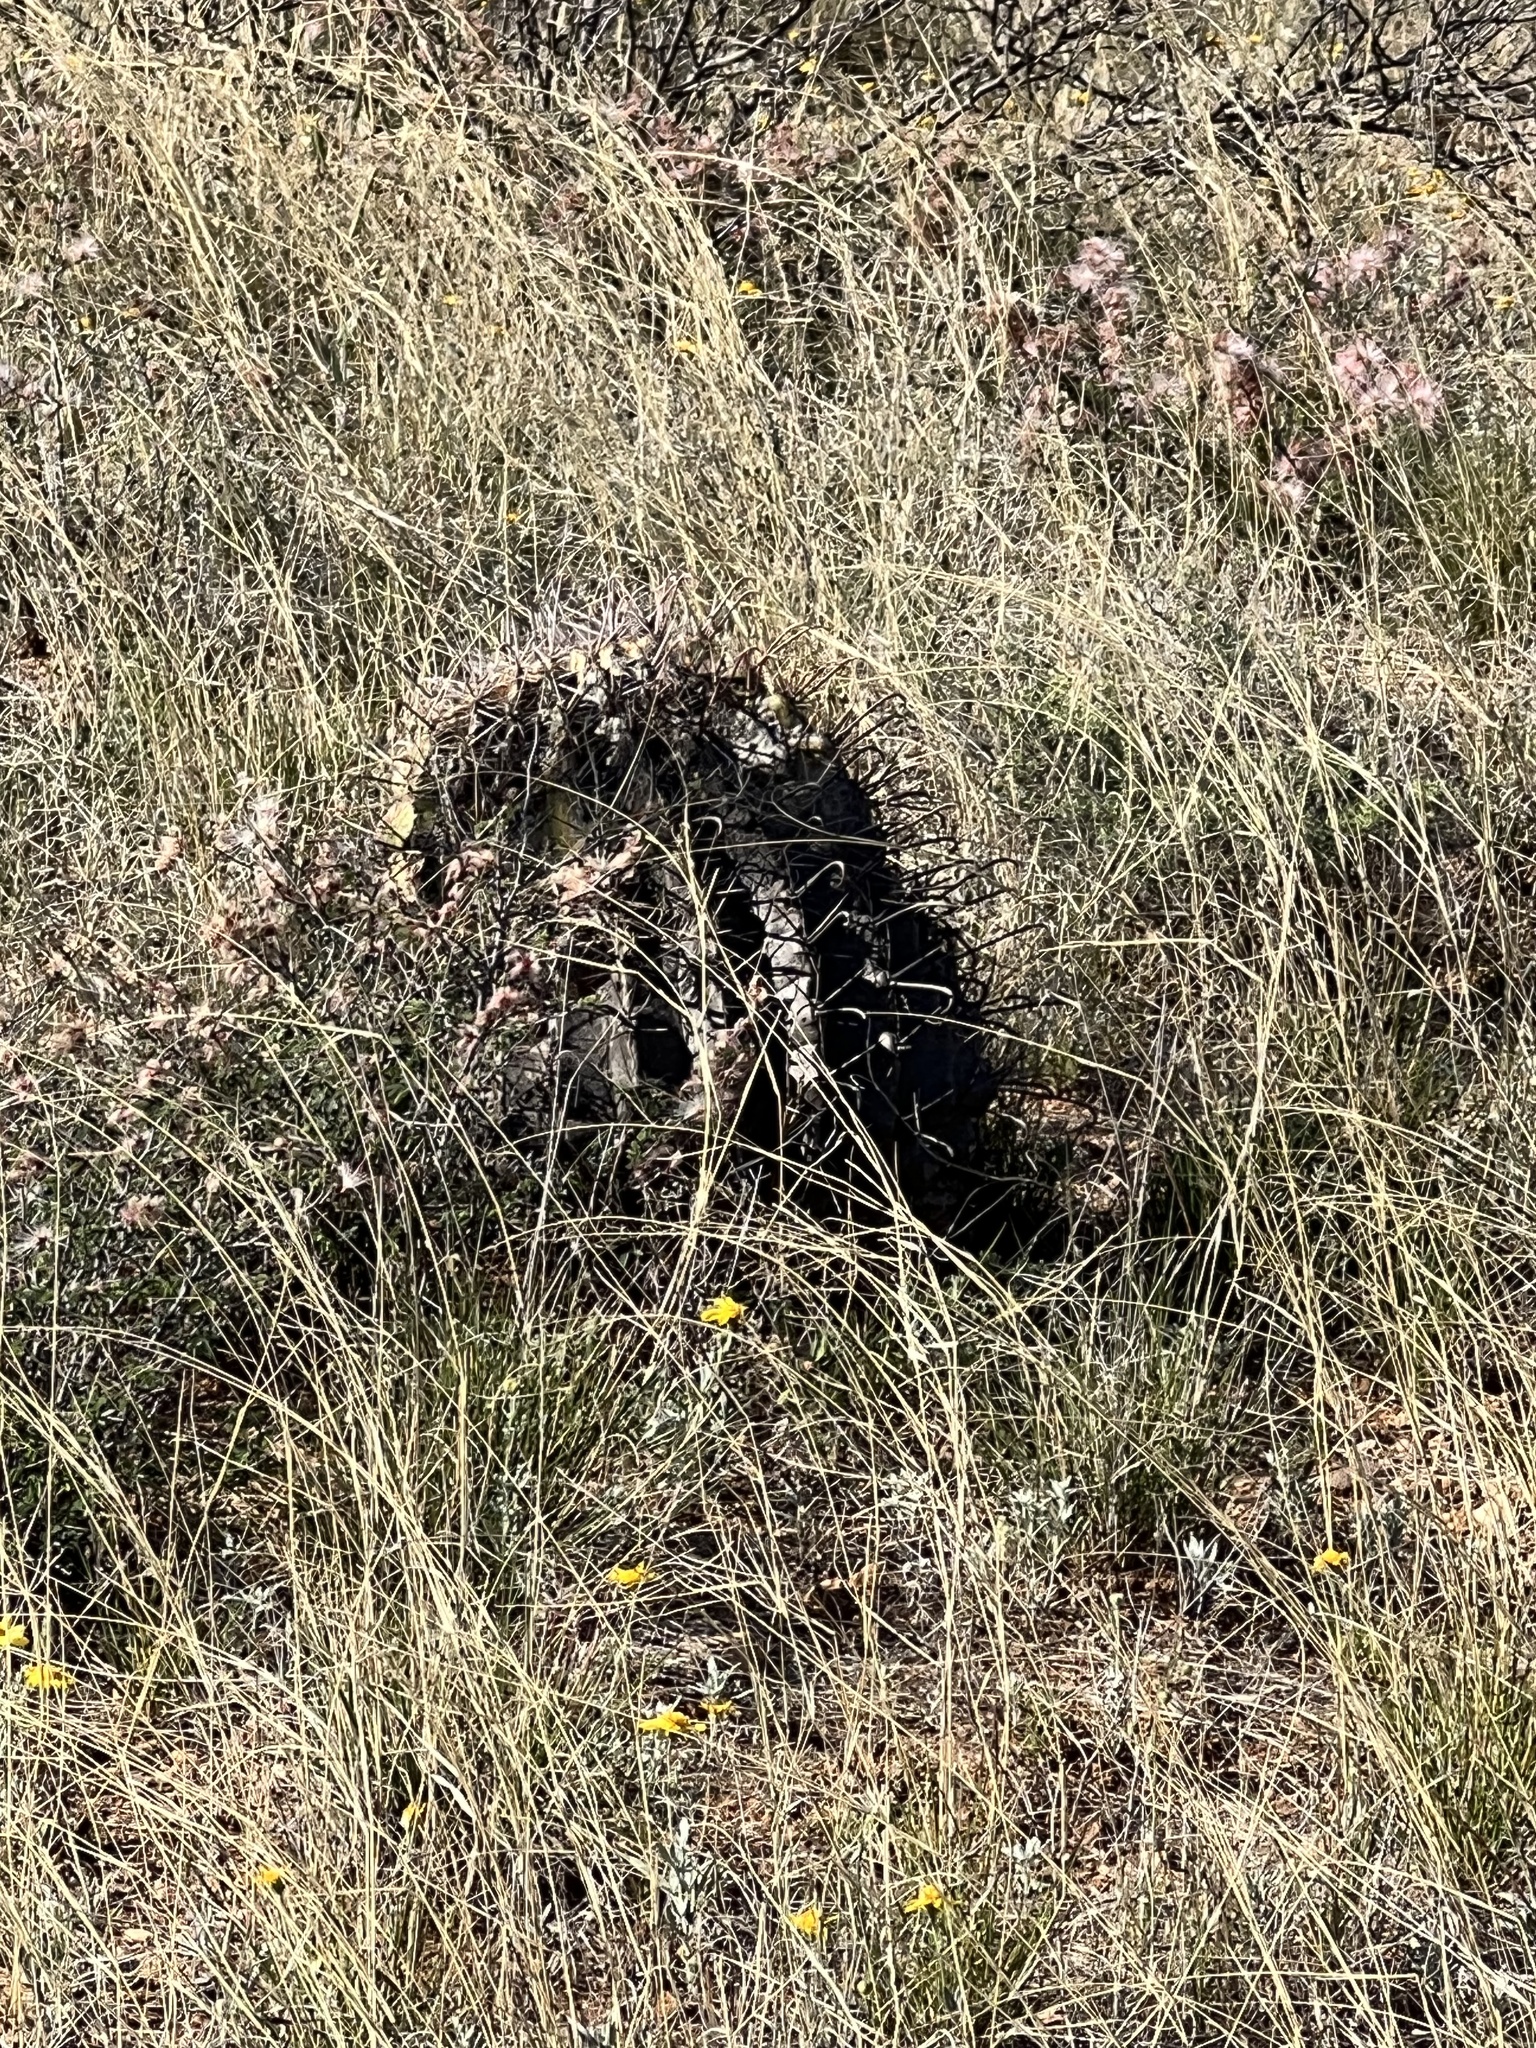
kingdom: Plantae
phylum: Tracheophyta
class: Magnoliopsida
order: Caryophyllales
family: Cactaceae
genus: Ferocactus
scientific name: Ferocactus wislizeni
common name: Candy barrel cactus
